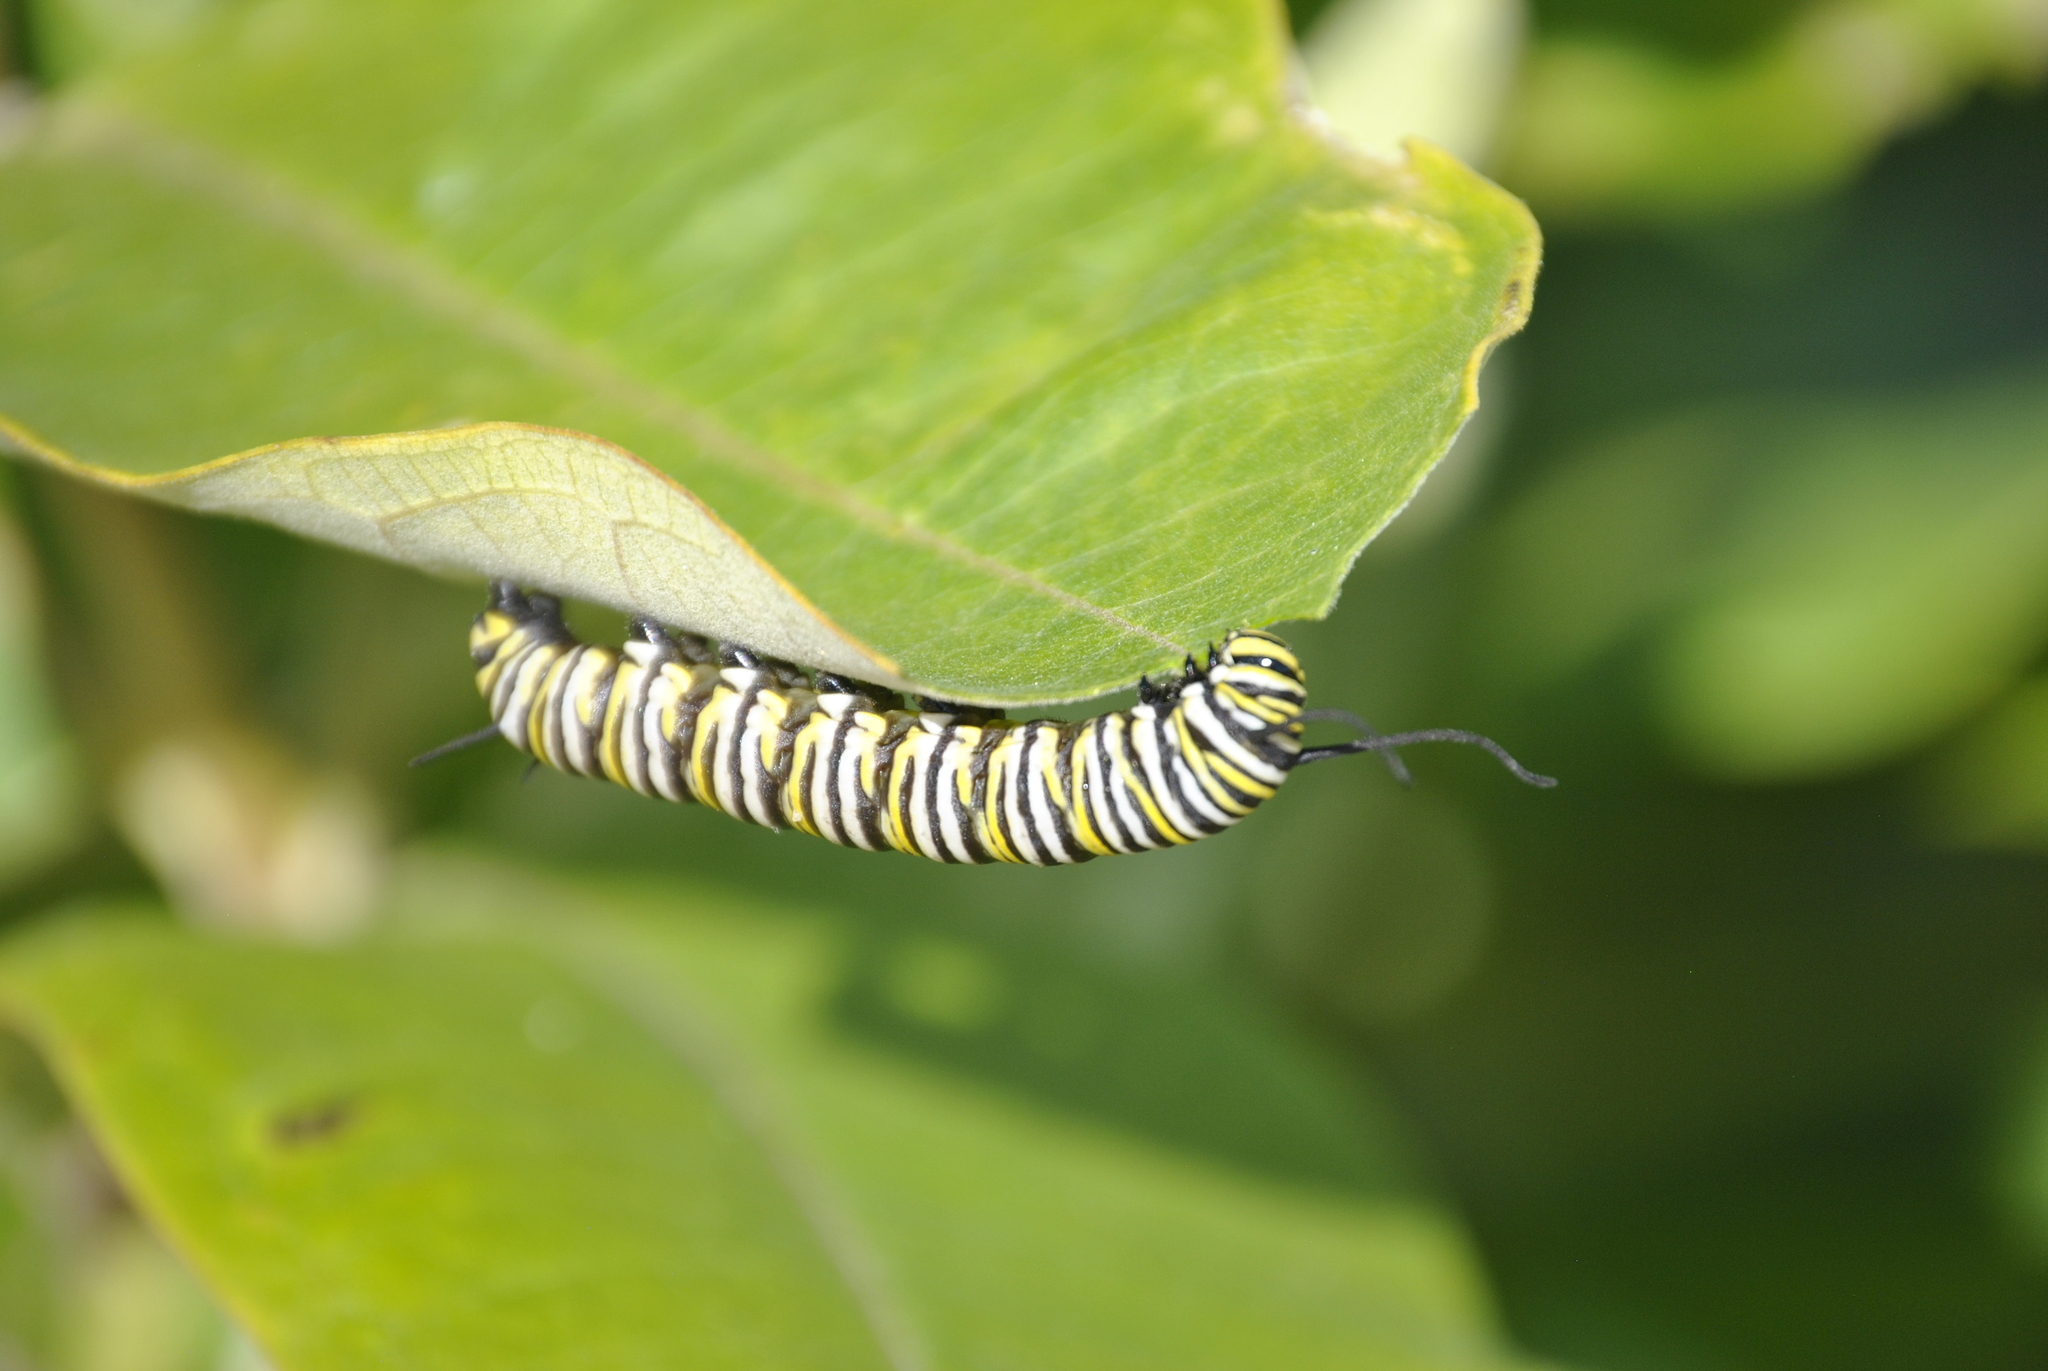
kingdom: Animalia
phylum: Arthropoda
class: Insecta
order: Lepidoptera
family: Nymphalidae
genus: Danaus
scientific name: Danaus plexippus
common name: Monarch
